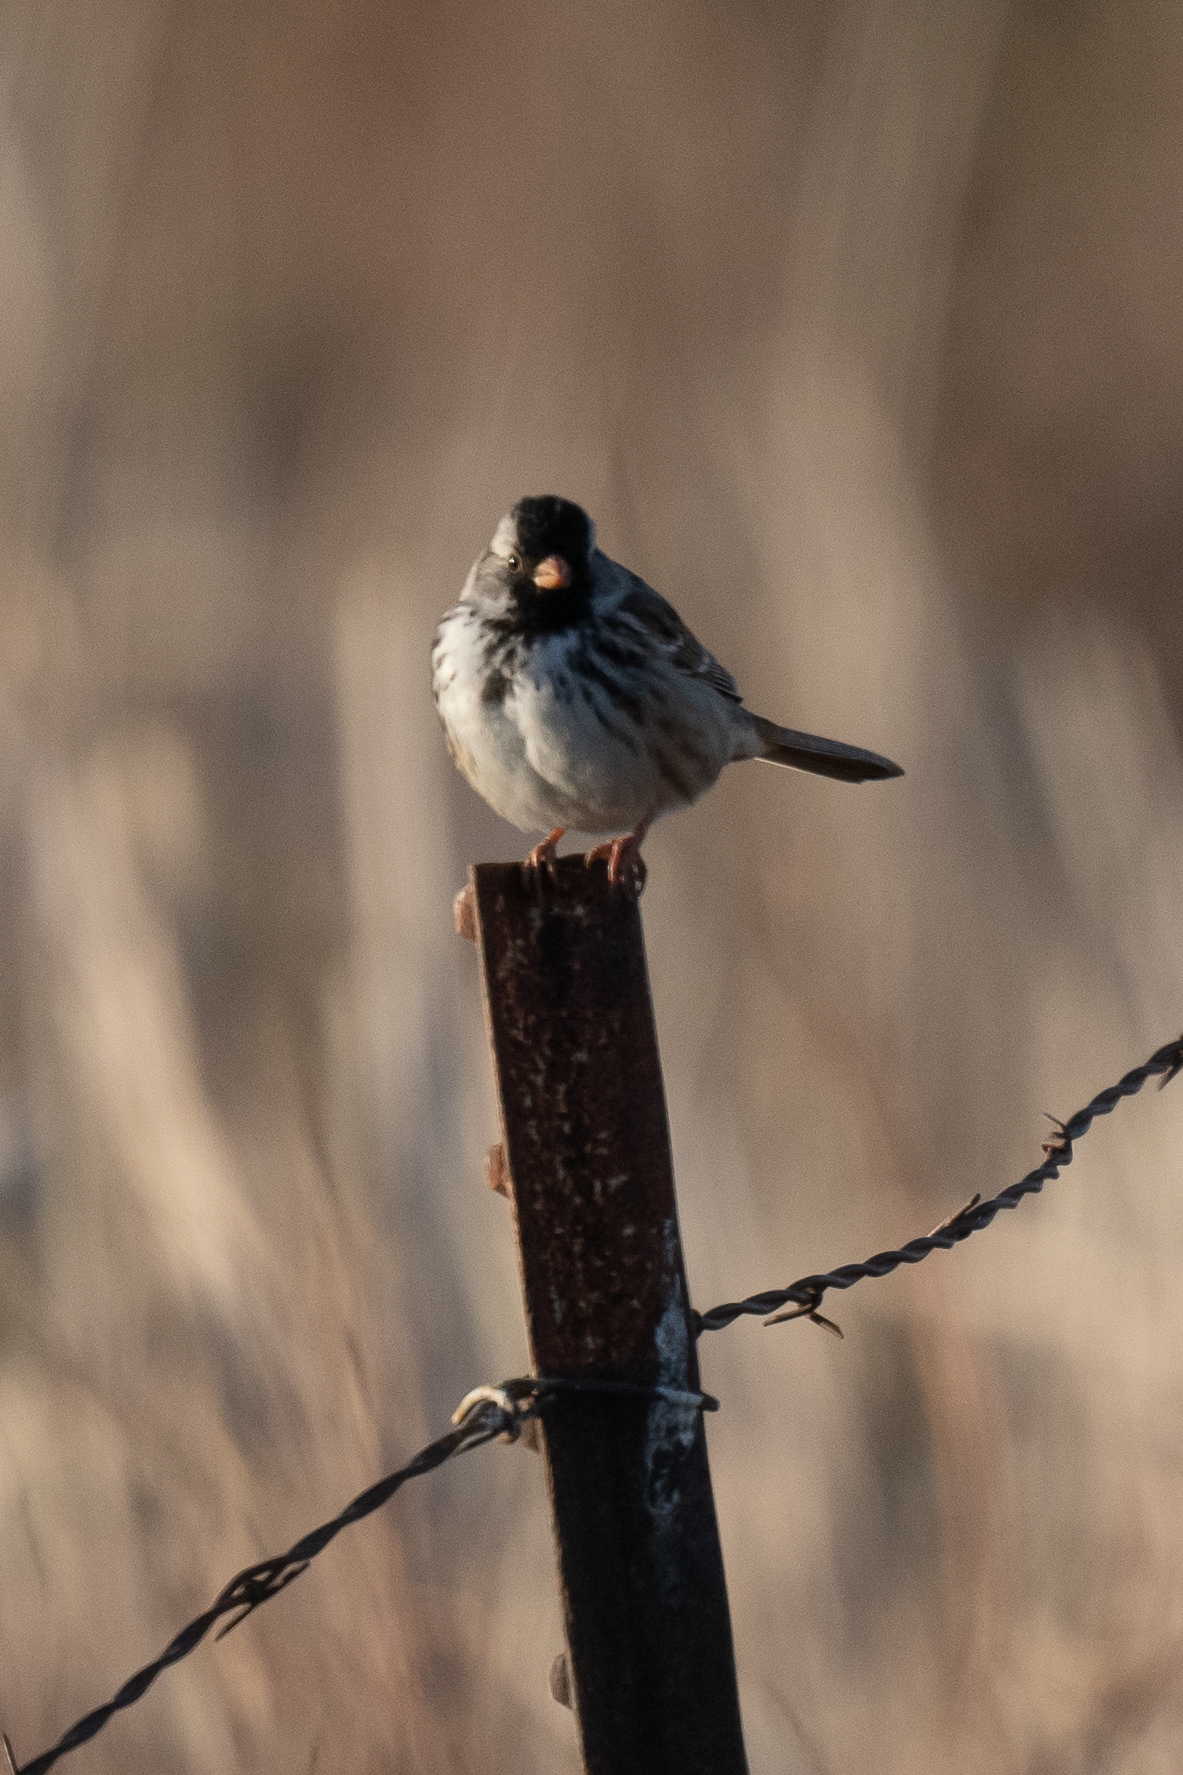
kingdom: Animalia
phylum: Chordata
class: Aves
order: Passeriformes
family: Passerellidae
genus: Zonotrichia
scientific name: Zonotrichia querula
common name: Harris's sparrow
